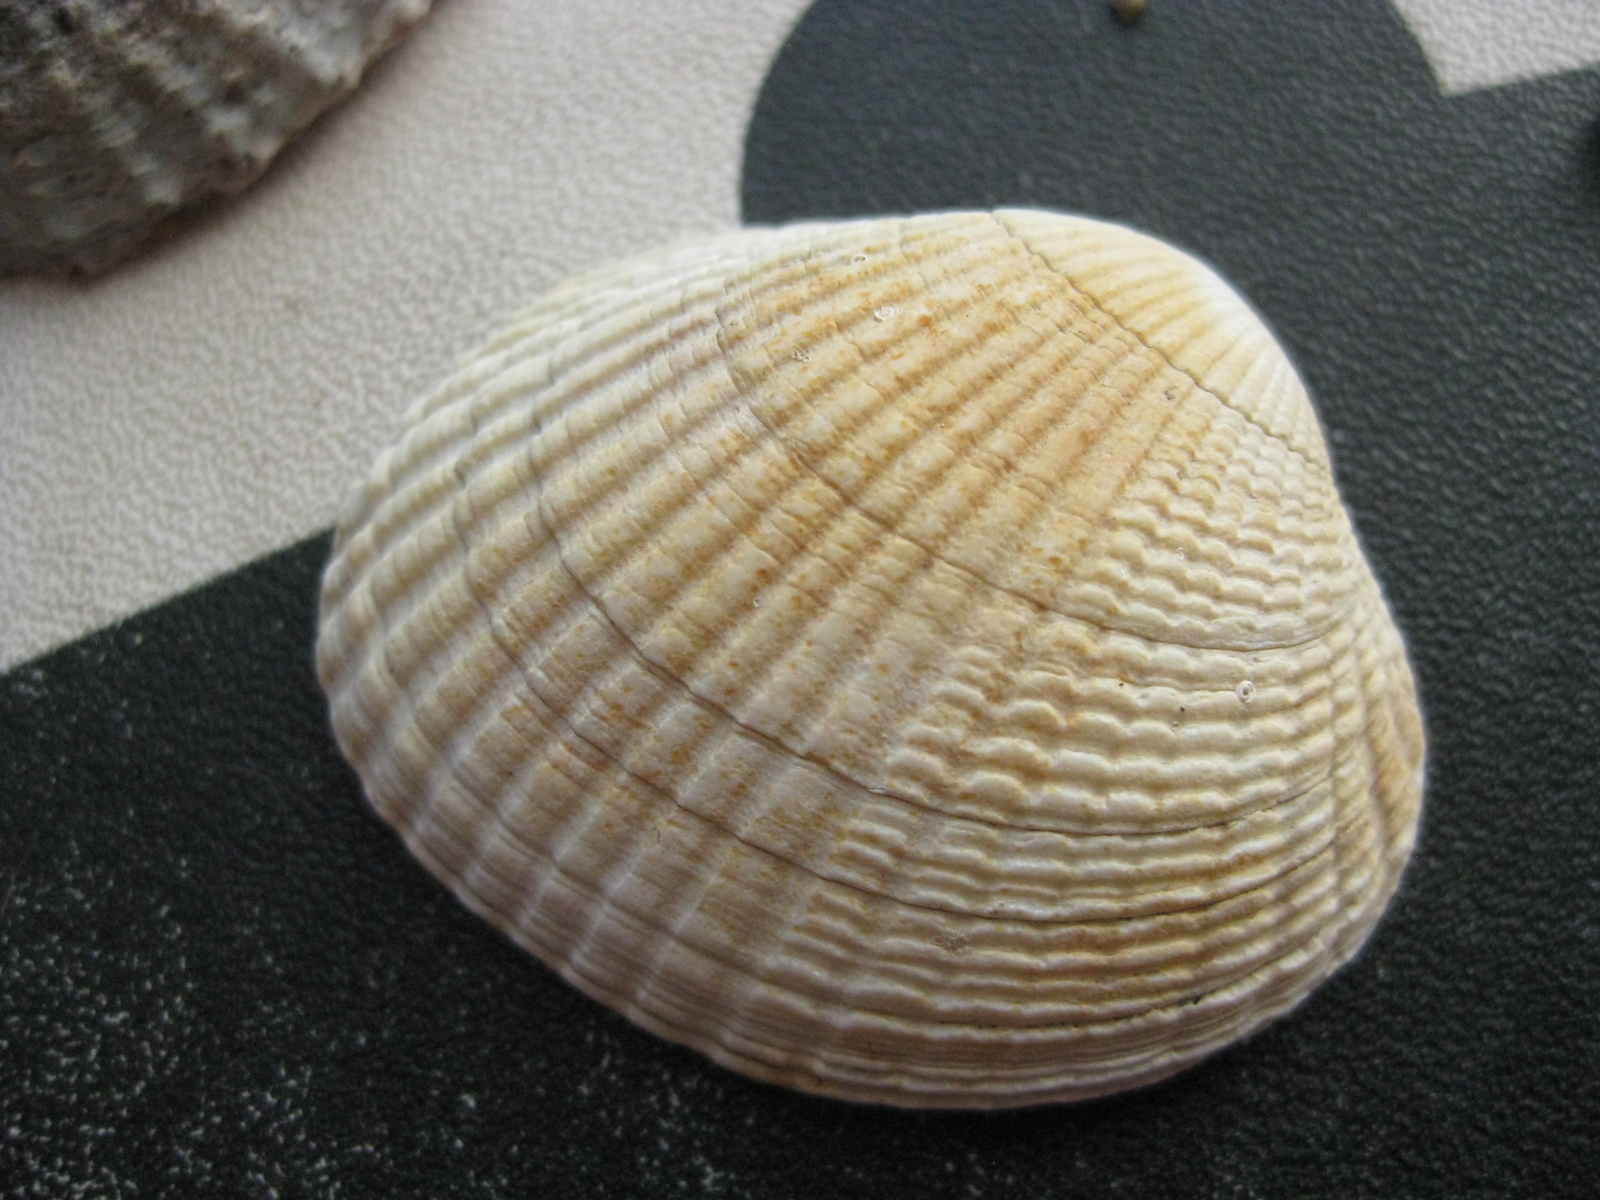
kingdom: Animalia
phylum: Mollusca
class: Bivalvia
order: Venerida
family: Veneridae
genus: Leukoma
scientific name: Leukoma crassicosta
